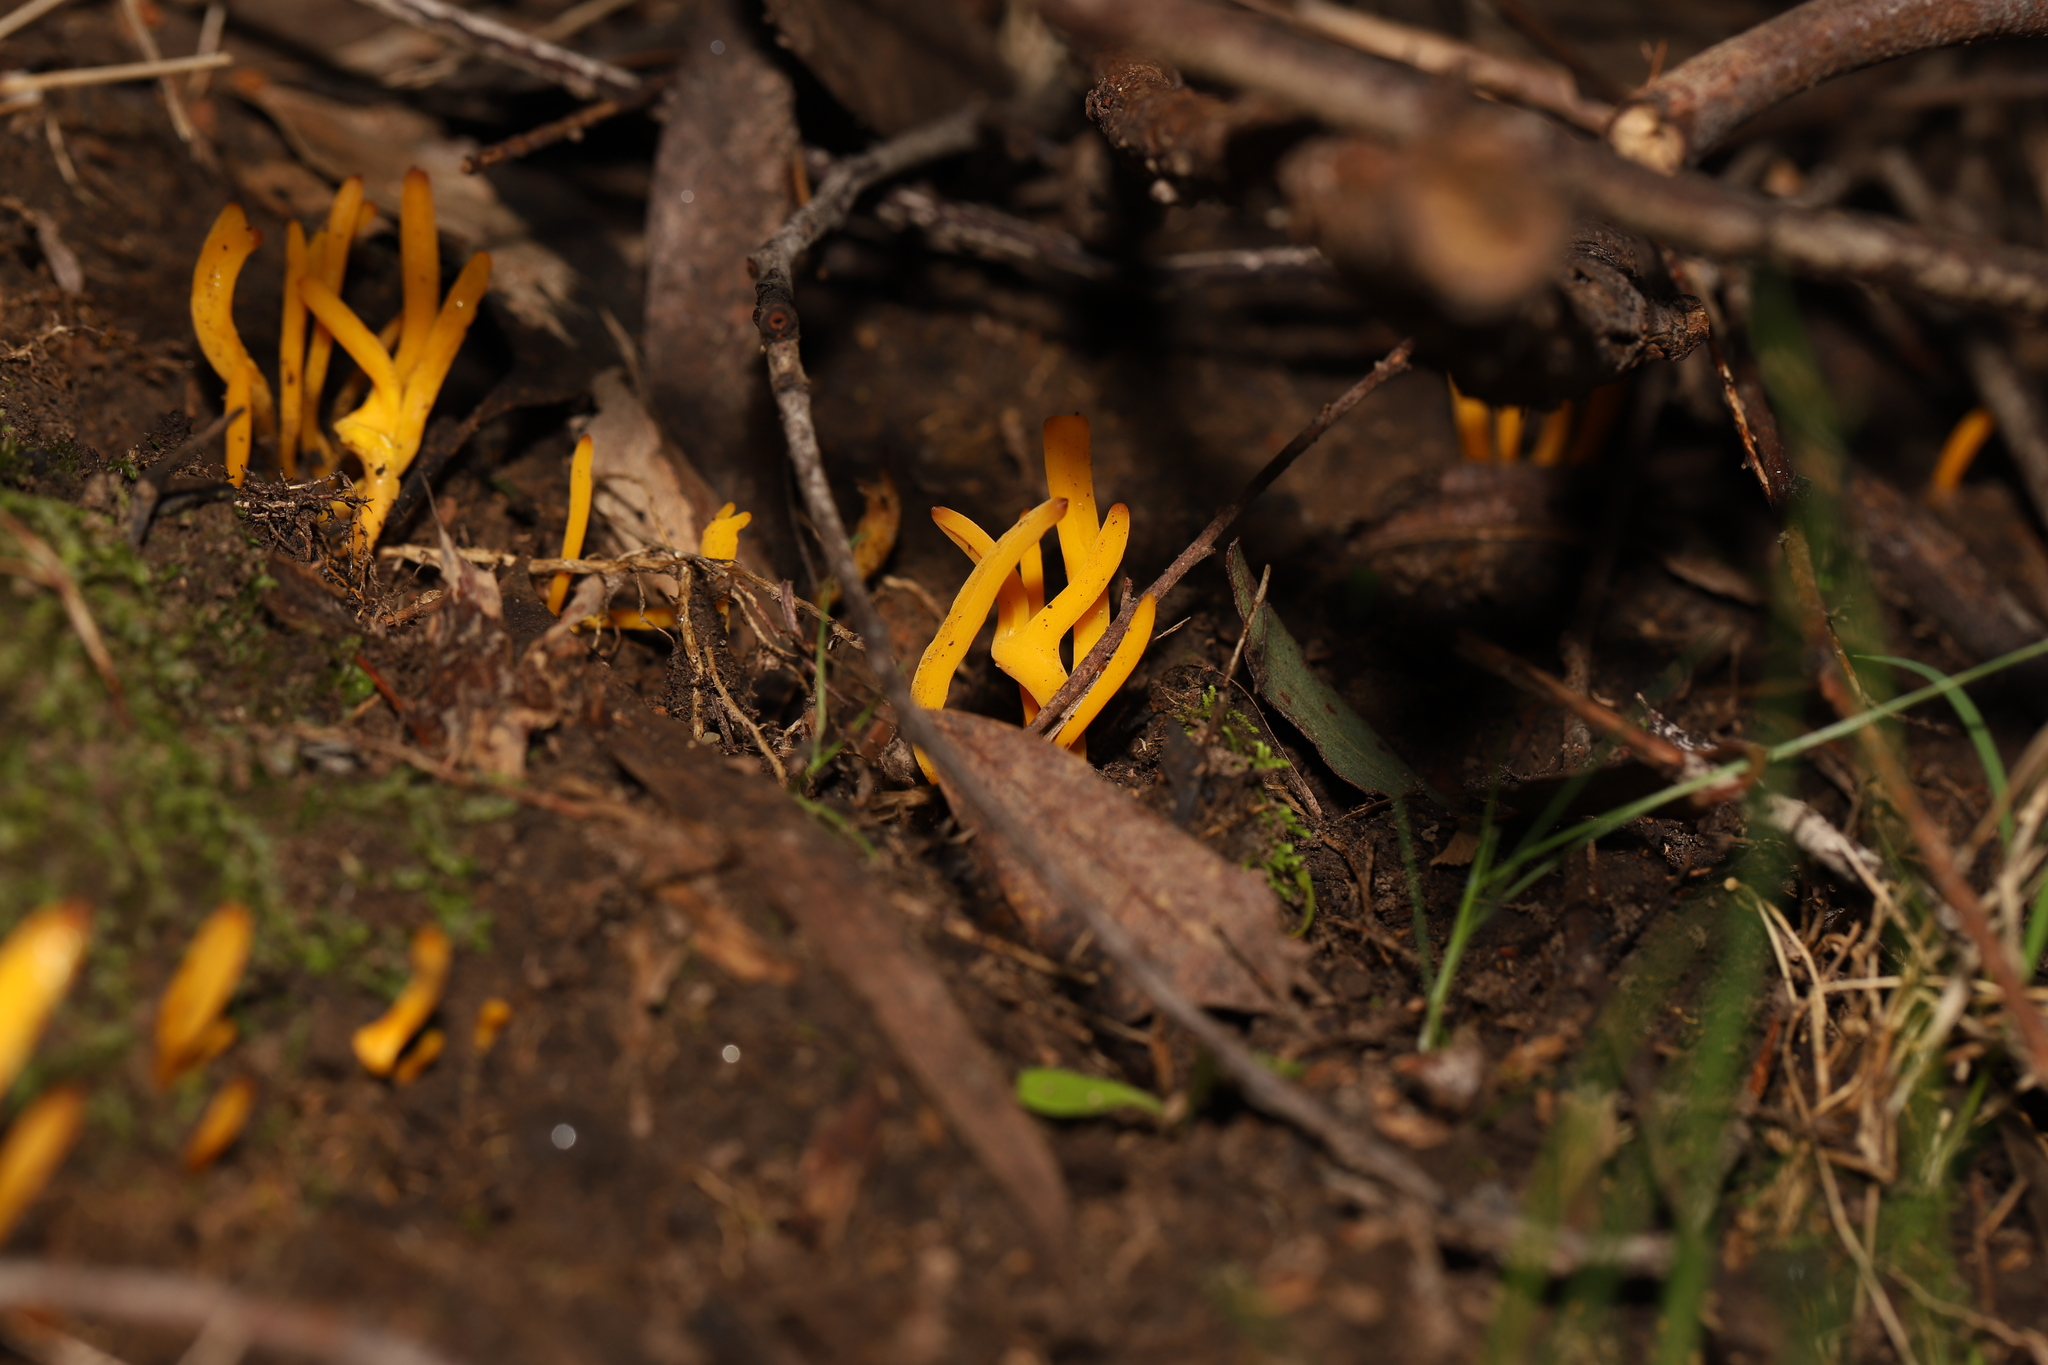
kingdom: Fungi
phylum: Basidiomycota
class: Agaricomycetes
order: Agaricales
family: Clavariaceae
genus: Clavulinopsis
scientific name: Clavulinopsis amoena
